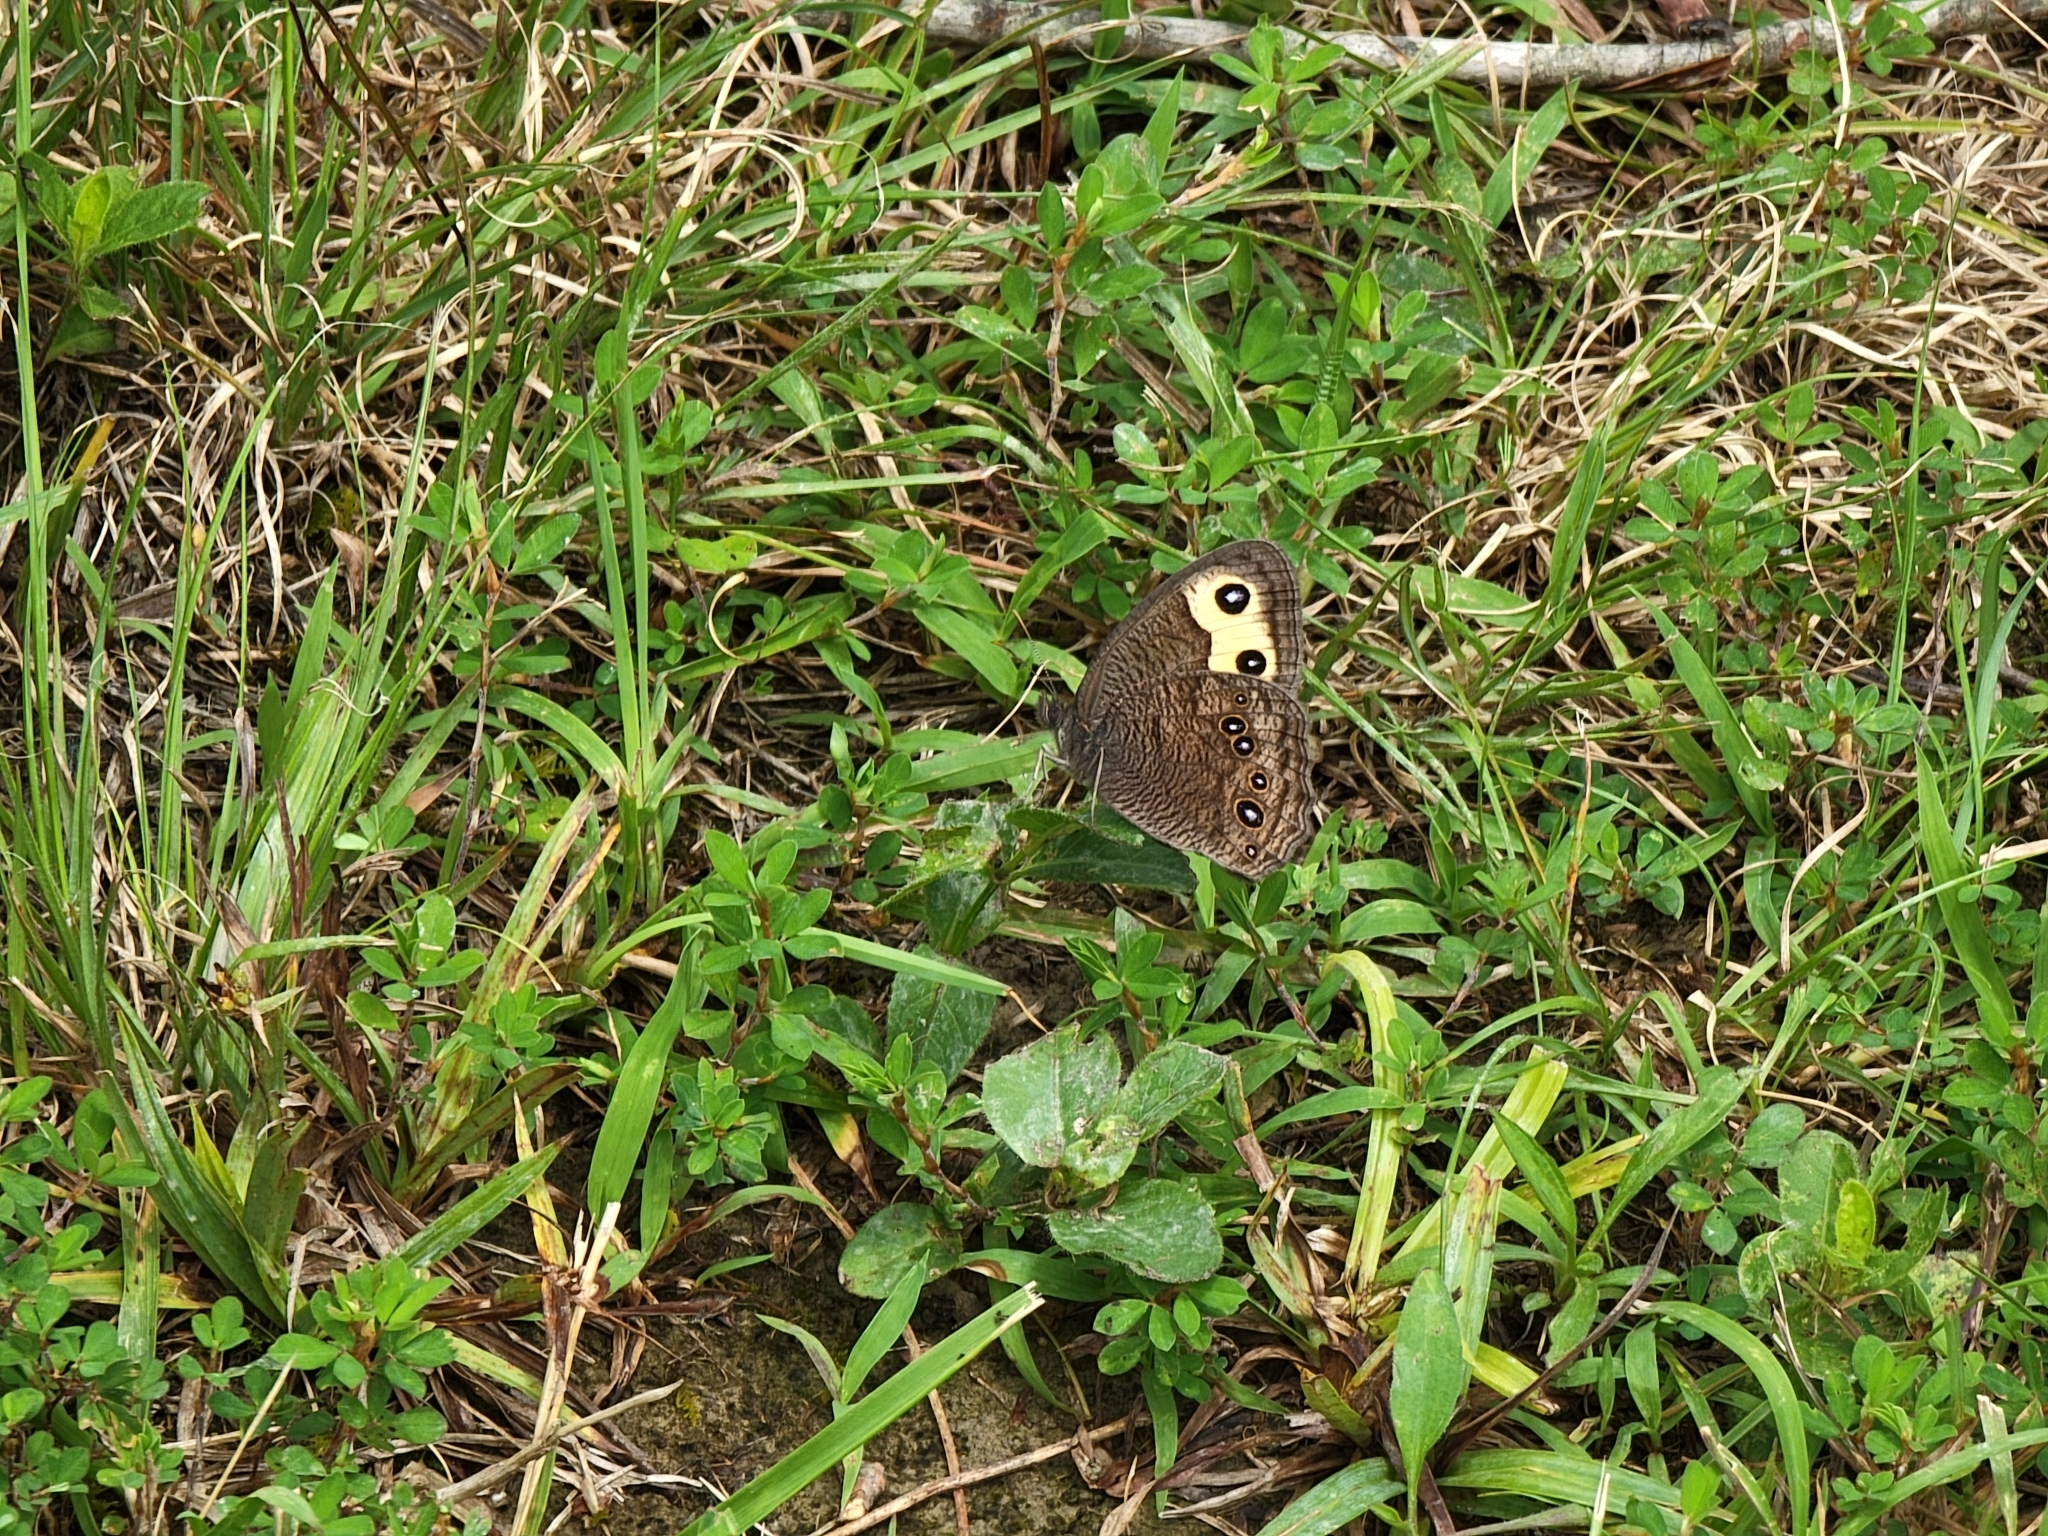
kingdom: Animalia
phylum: Arthropoda
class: Insecta
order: Lepidoptera
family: Nymphalidae
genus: Cercyonis
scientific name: Cercyonis pegala
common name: Common wood-nymph
